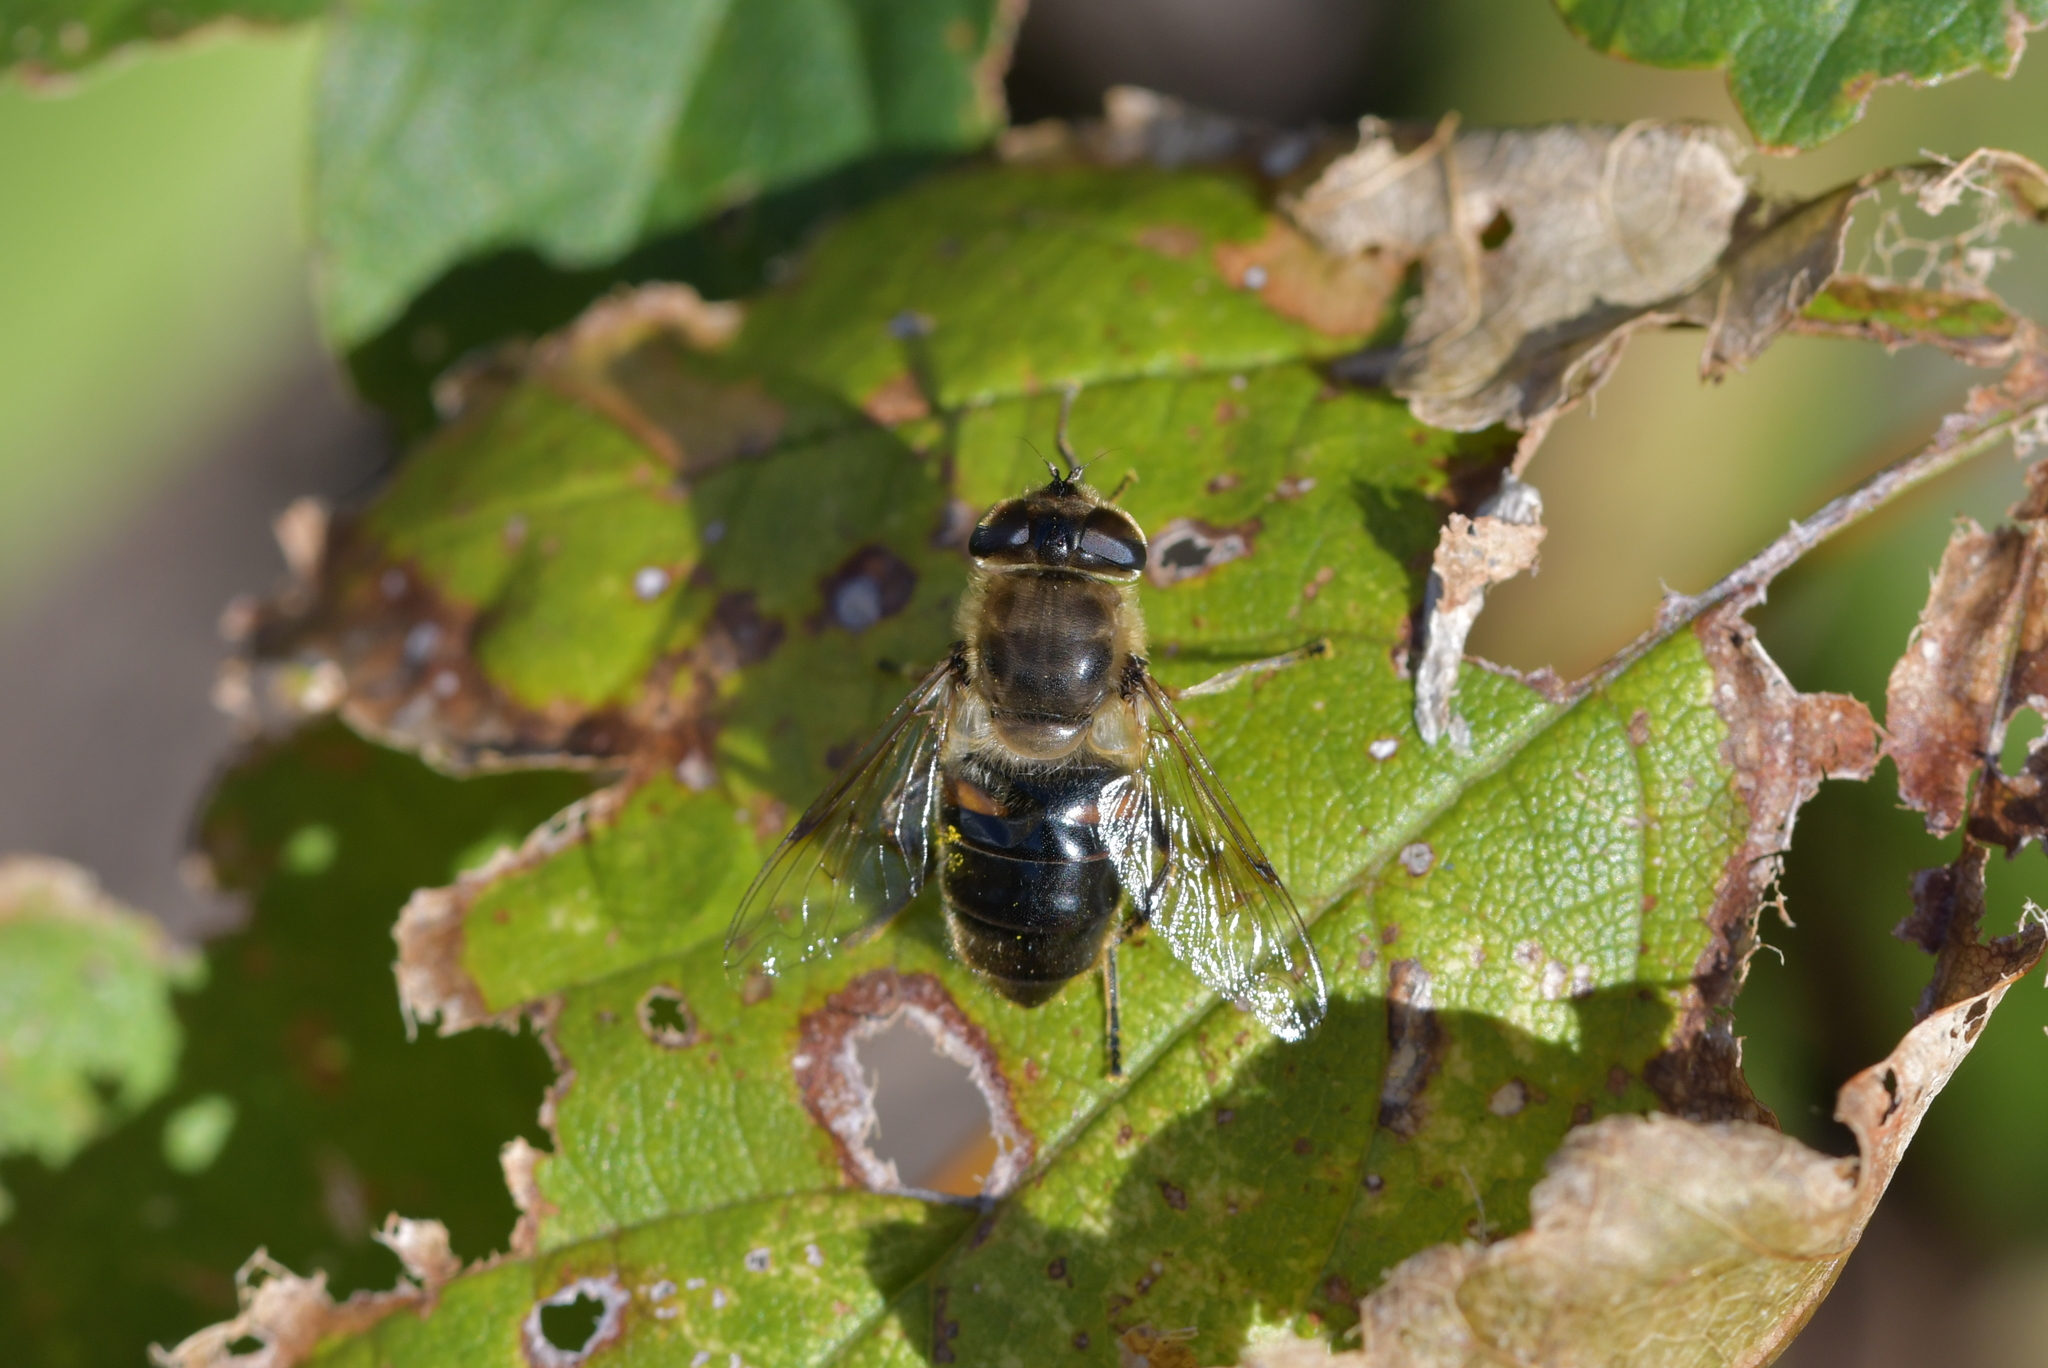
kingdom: Animalia
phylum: Arthropoda
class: Insecta
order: Diptera
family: Syrphidae
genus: Eristalis
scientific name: Eristalis tenax
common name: Drone fly
